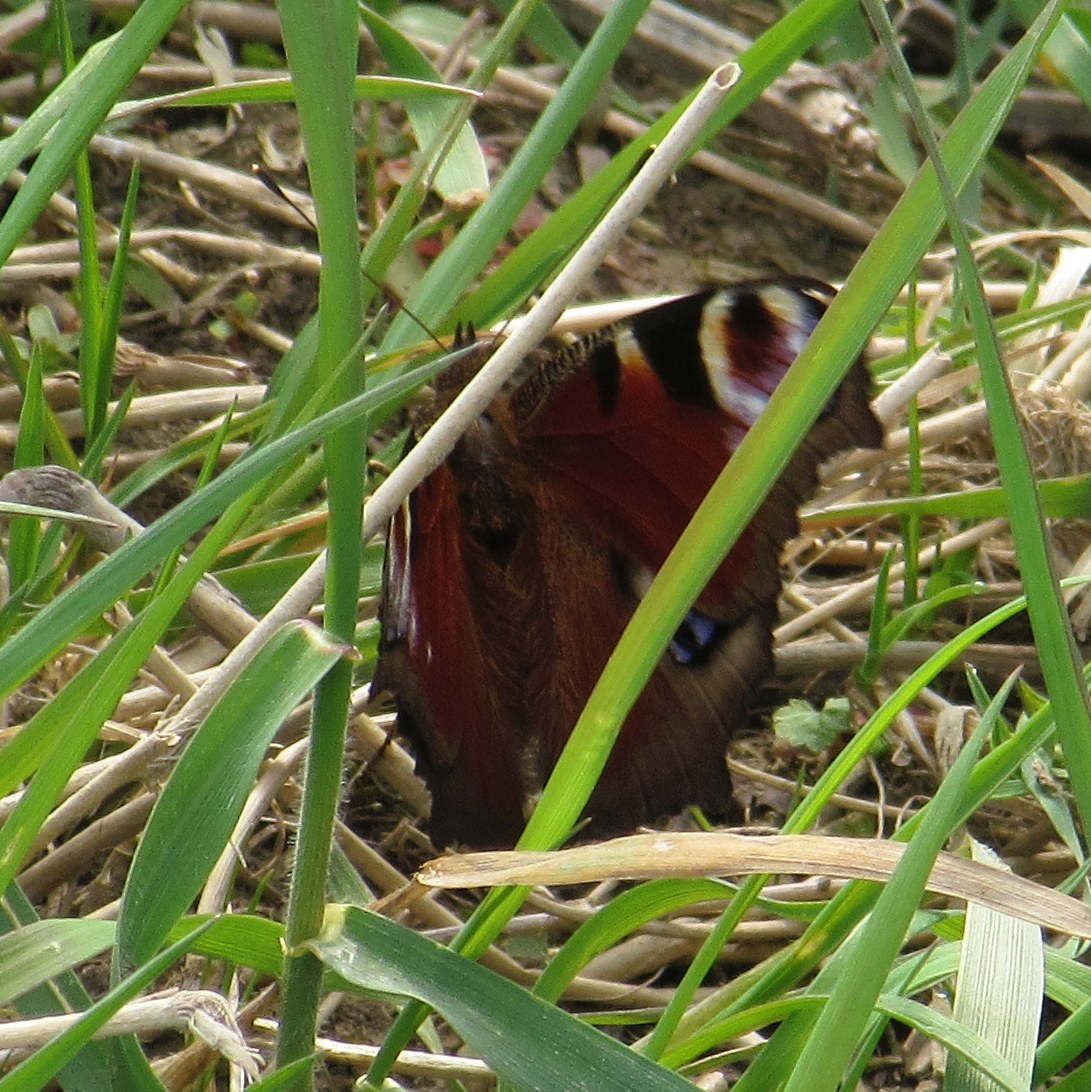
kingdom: Animalia
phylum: Arthropoda
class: Insecta
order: Lepidoptera
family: Nymphalidae
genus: Aglais
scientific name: Aglais io
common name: Peacock
